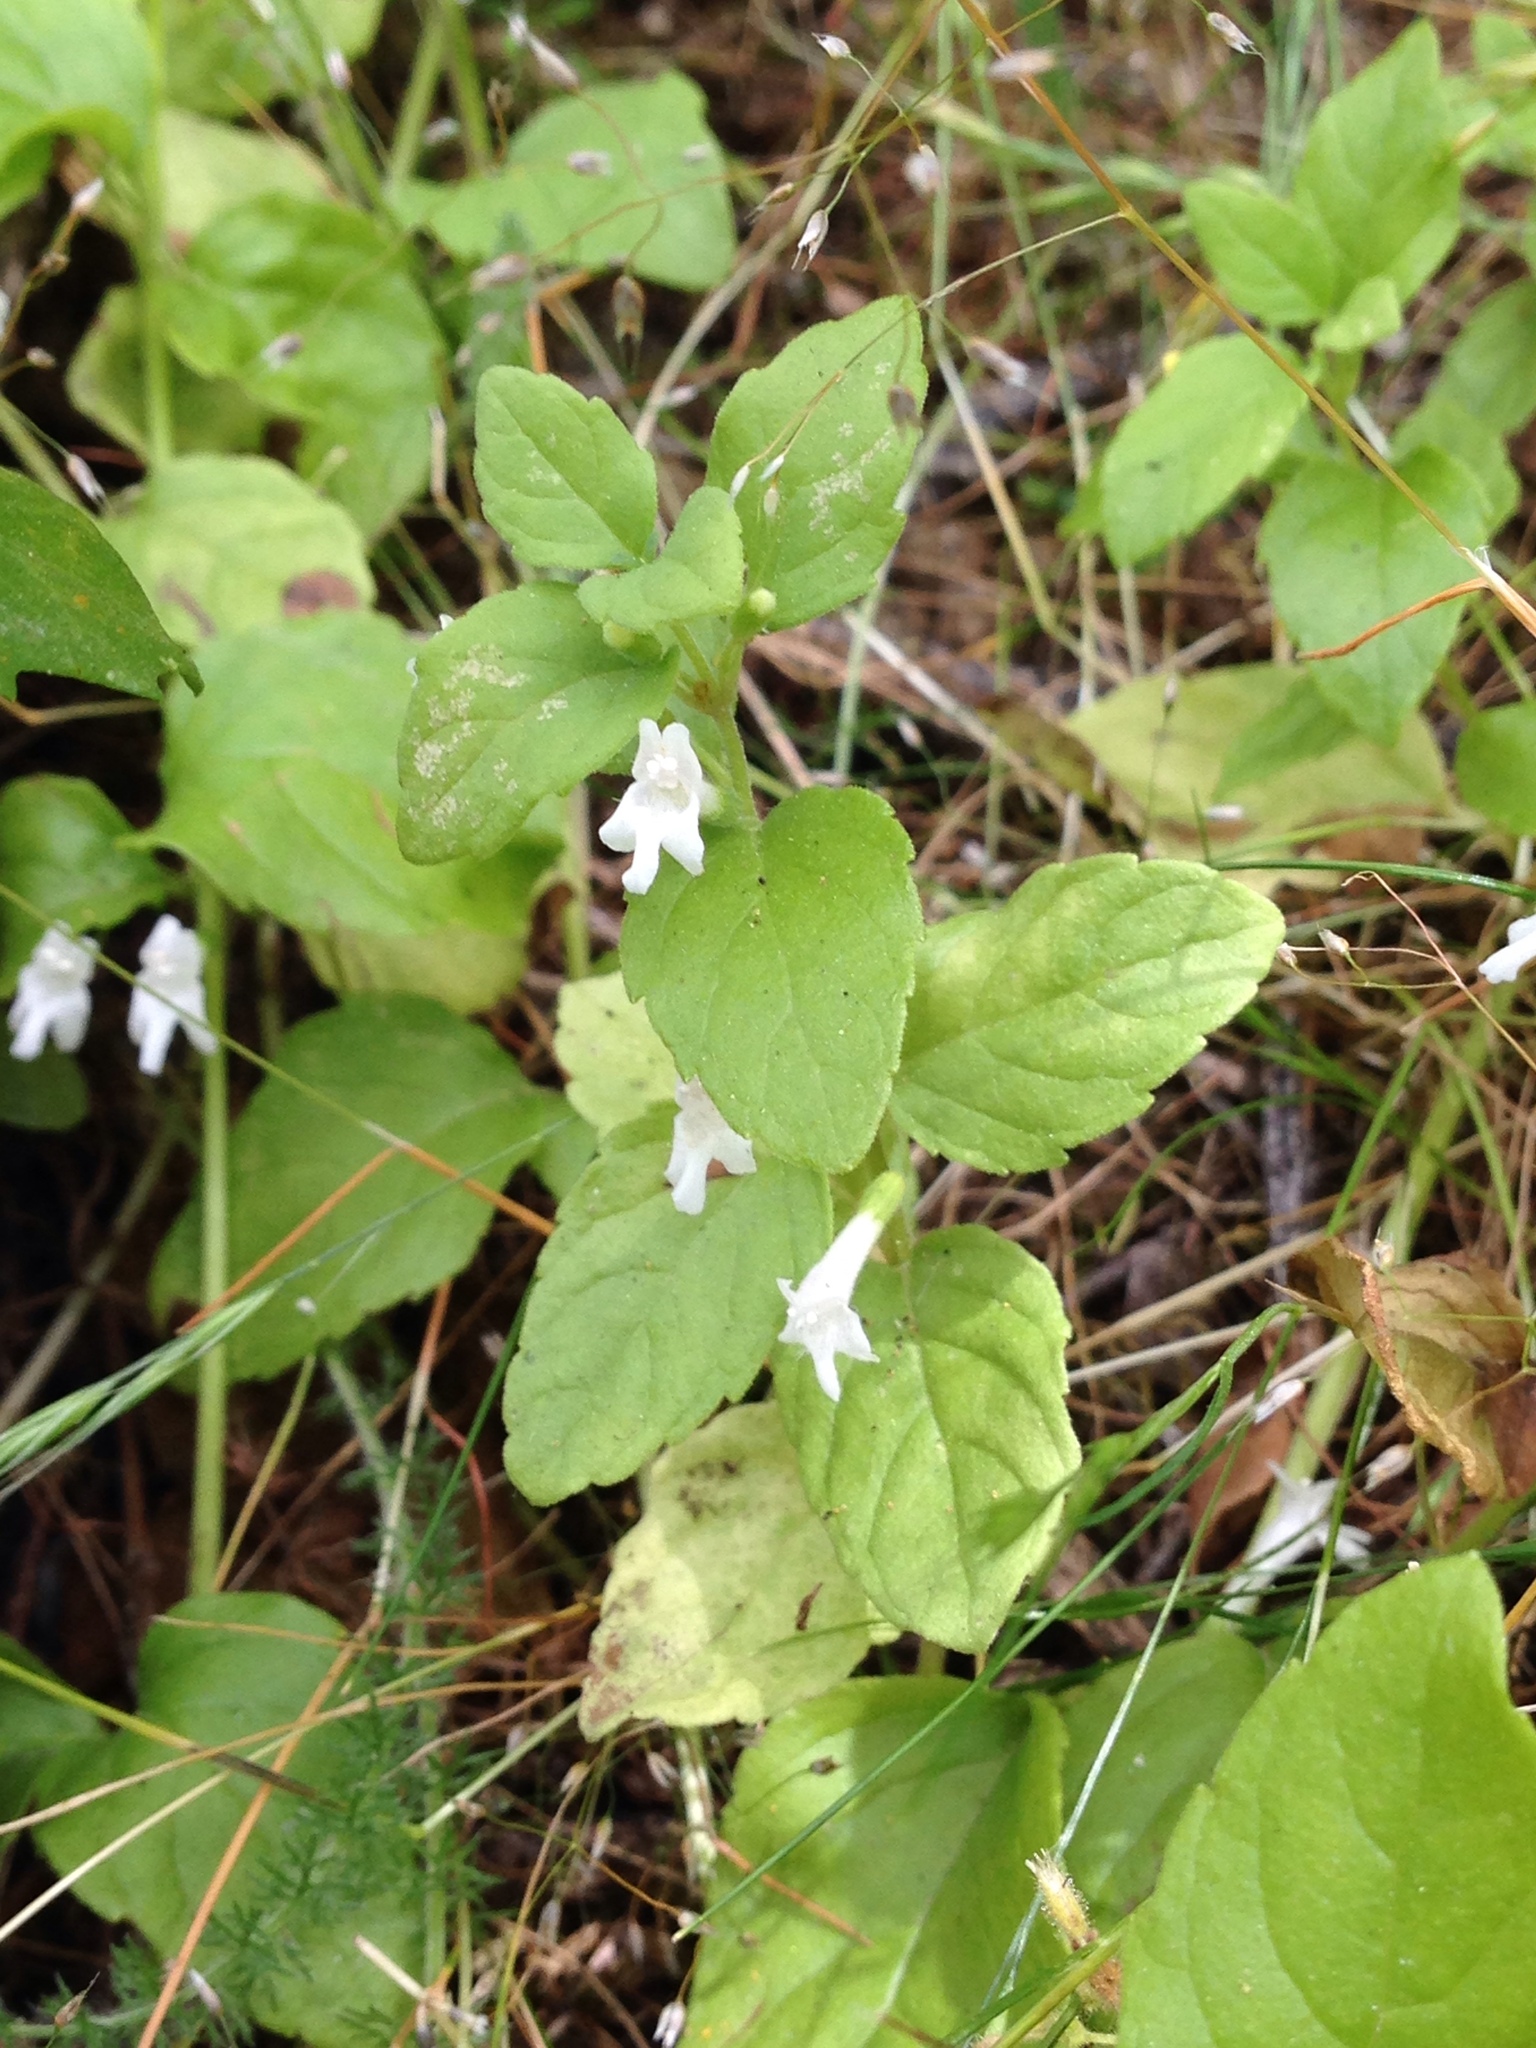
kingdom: Plantae
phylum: Tracheophyta
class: Magnoliopsida
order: Lamiales
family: Lamiaceae
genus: Micromeria
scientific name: Micromeria douglasii
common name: Yerba buena
